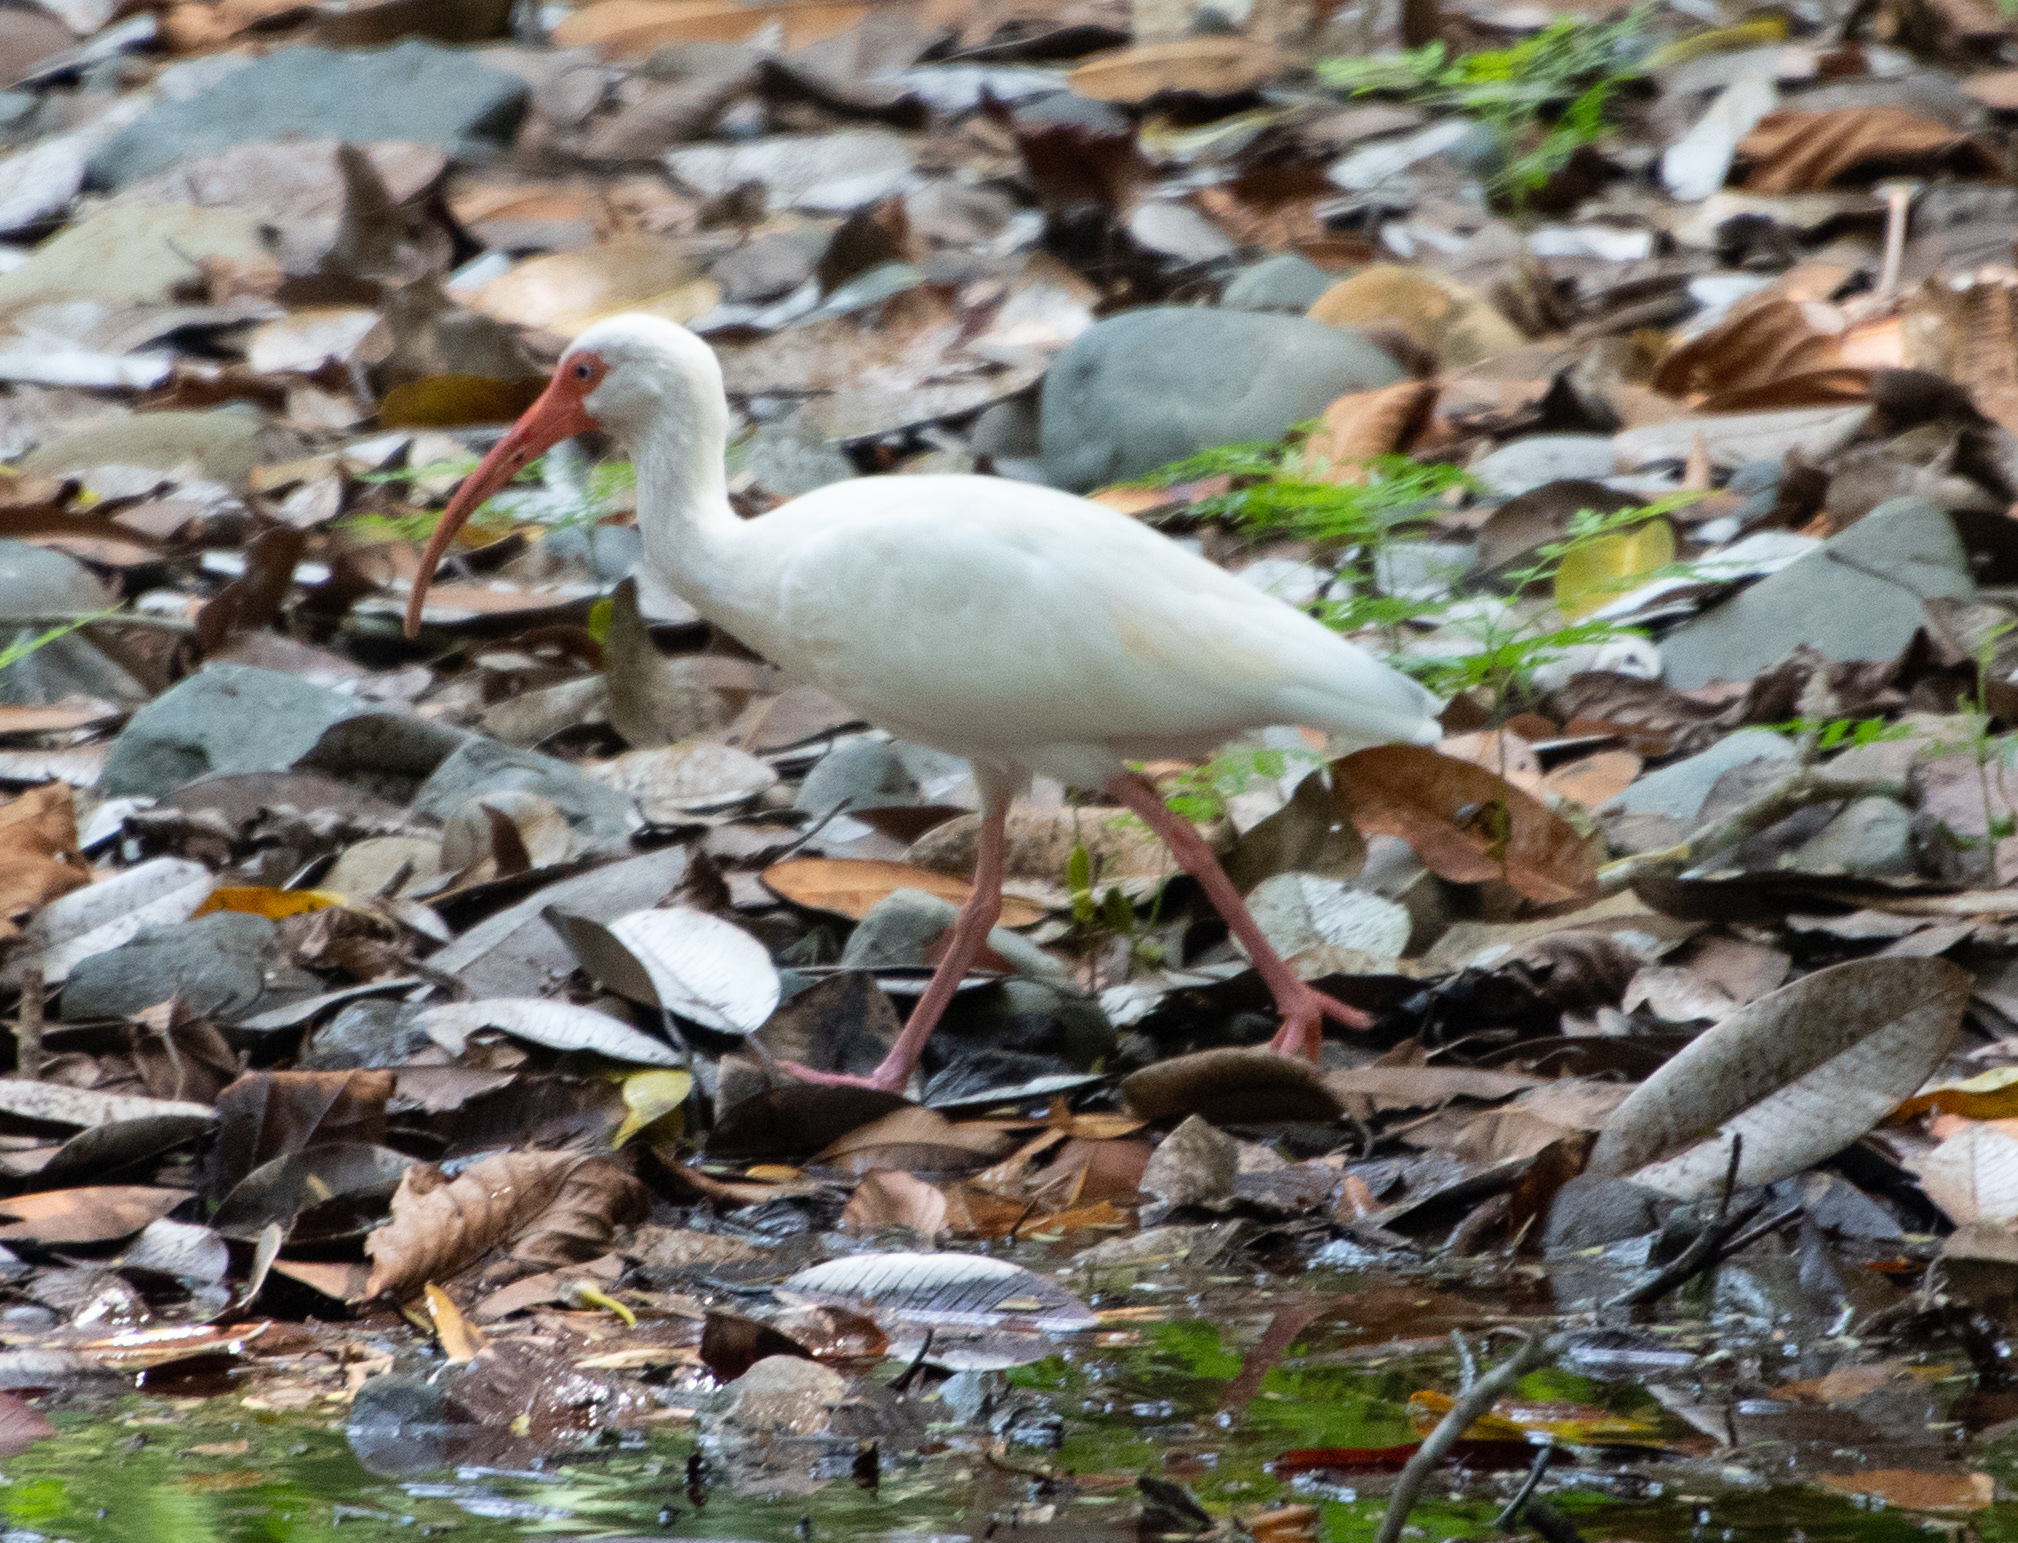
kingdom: Animalia
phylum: Chordata
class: Aves
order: Pelecaniformes
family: Threskiornithidae
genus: Eudocimus
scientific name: Eudocimus albus
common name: White ibis
